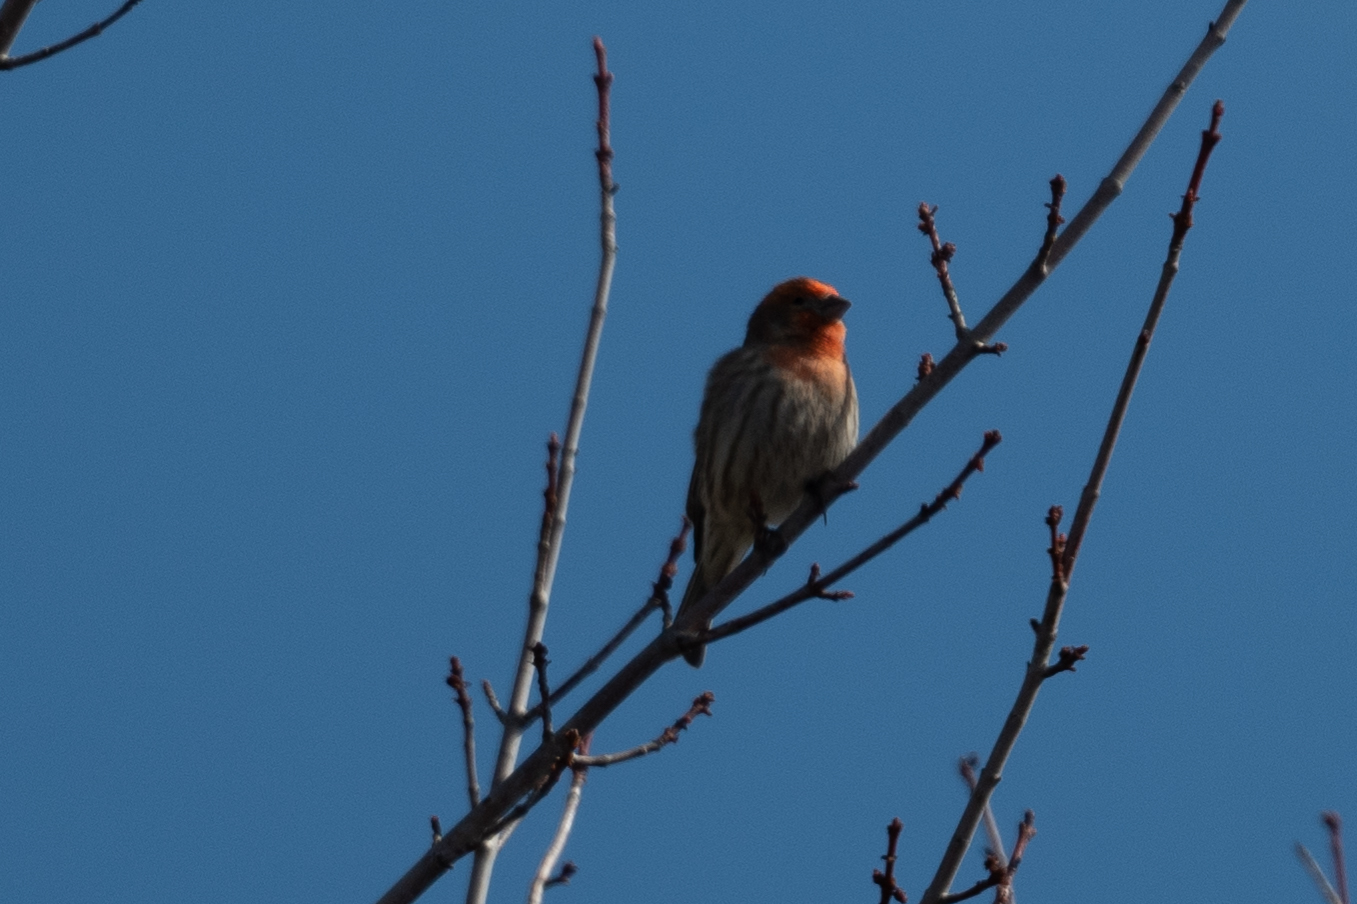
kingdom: Animalia
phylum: Chordata
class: Aves
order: Passeriformes
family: Fringillidae
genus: Haemorhous
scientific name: Haemorhous mexicanus
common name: House finch
